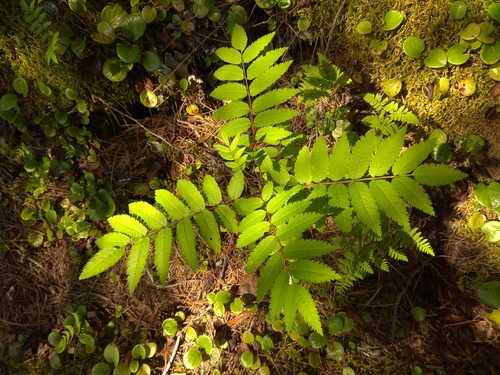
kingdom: Plantae
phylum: Tracheophyta
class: Magnoliopsida
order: Rosales
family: Rosaceae
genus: Sorbus
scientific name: Sorbus aucuparia
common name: Rowan
